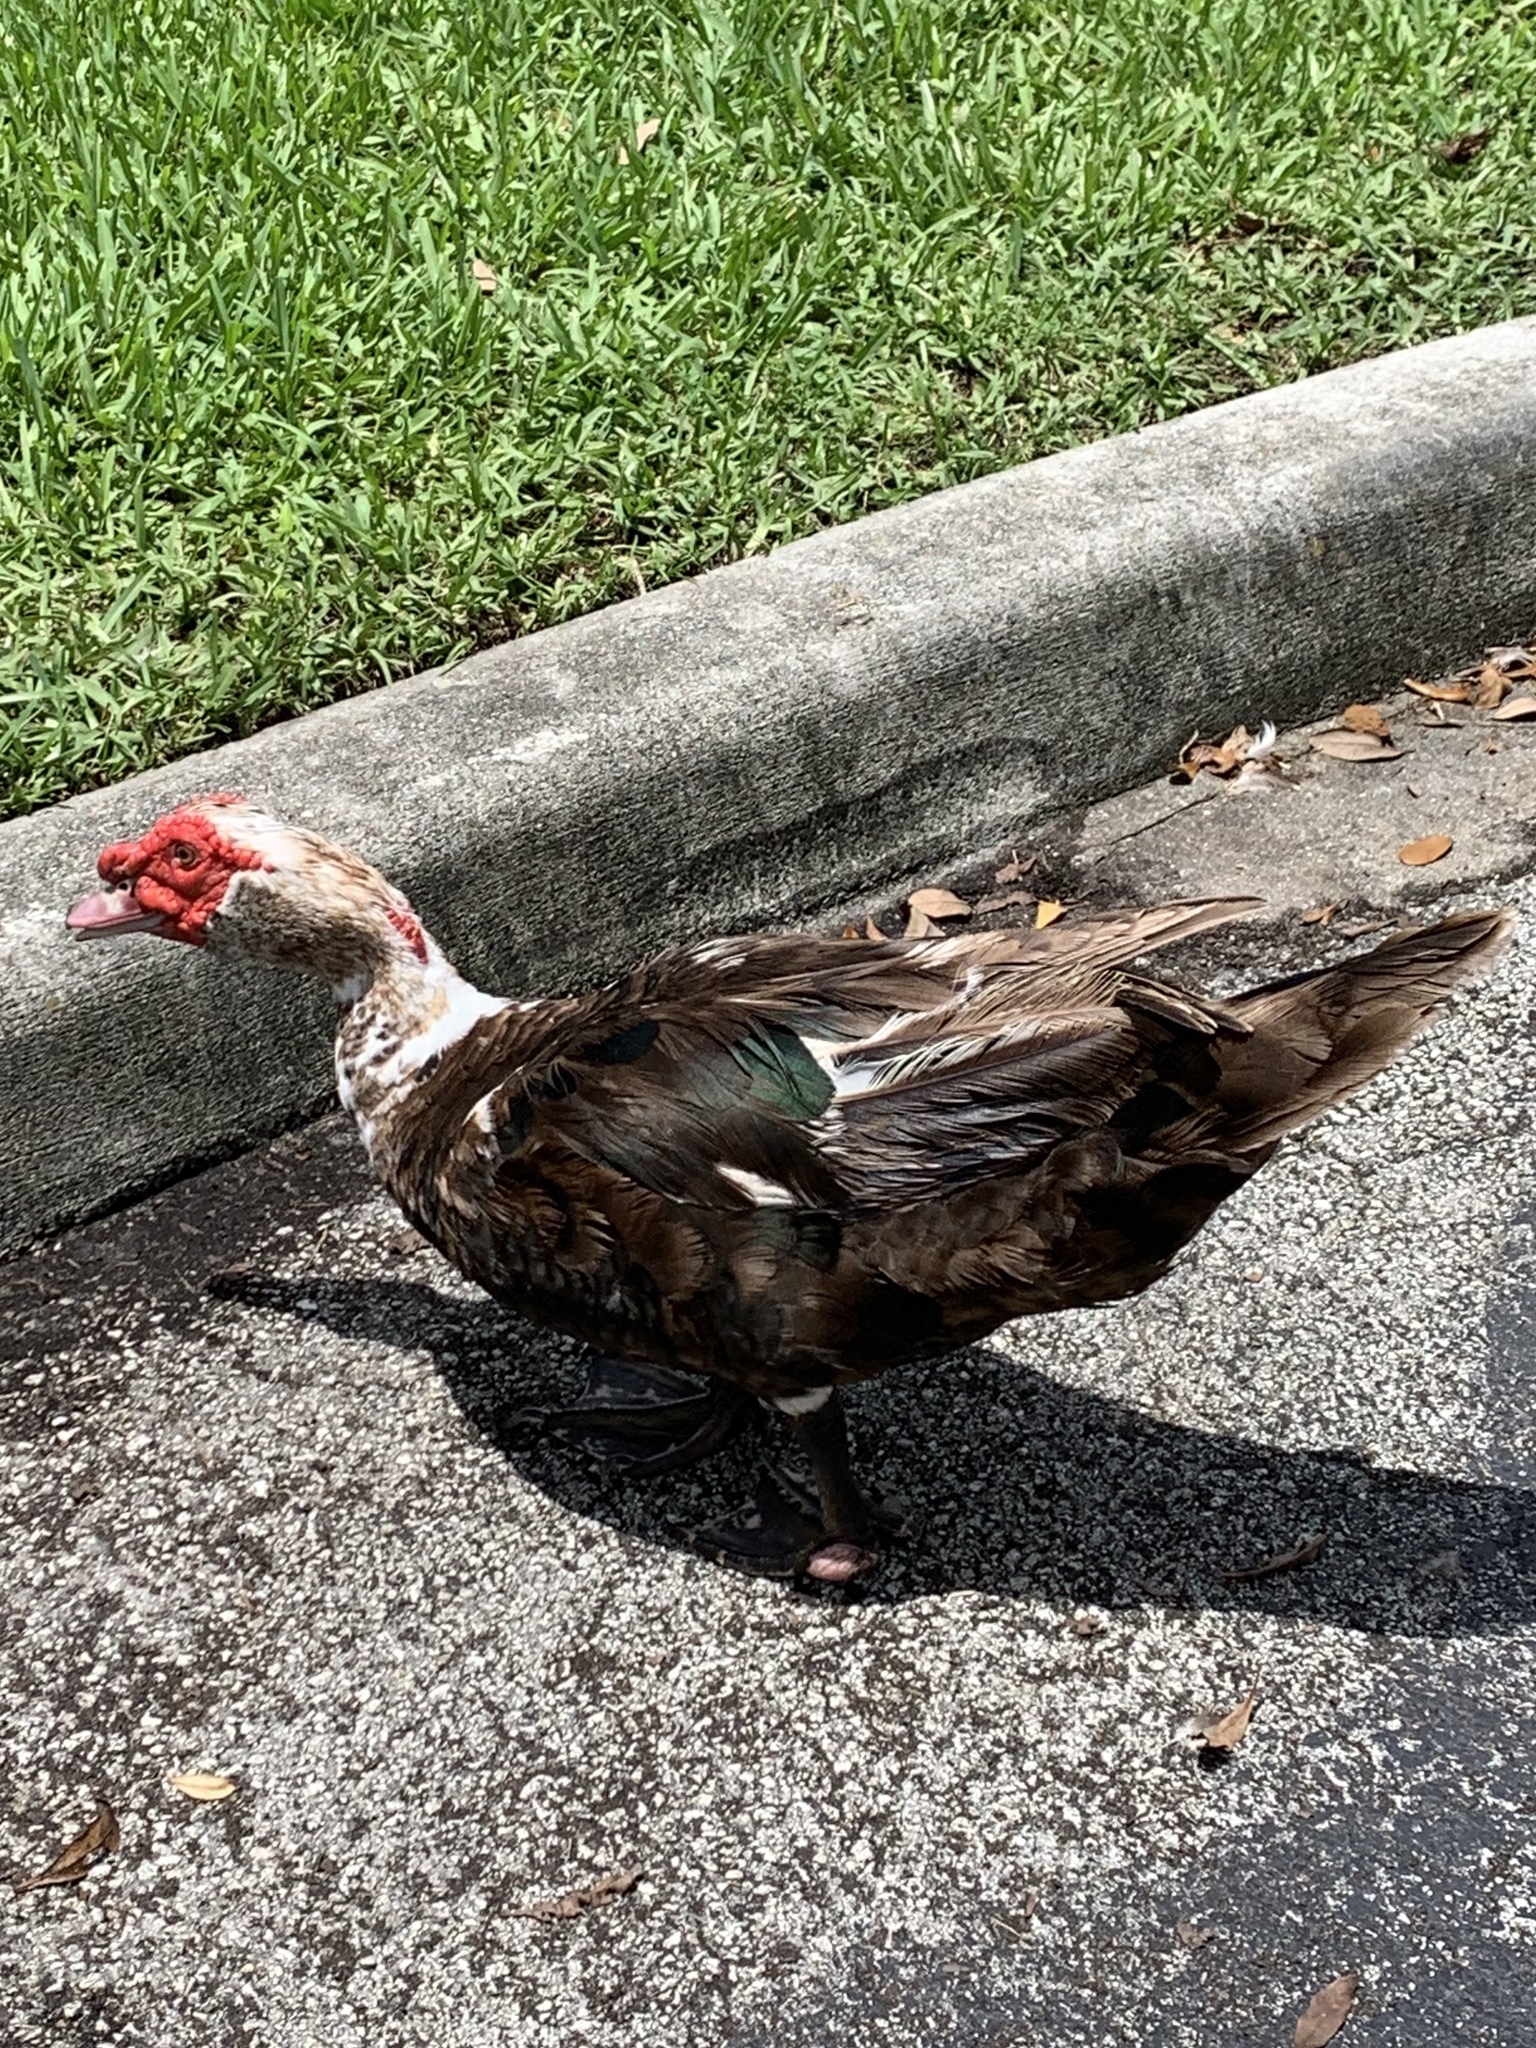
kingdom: Animalia
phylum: Chordata
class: Aves
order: Anseriformes
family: Anatidae
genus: Cairina
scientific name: Cairina moschata
